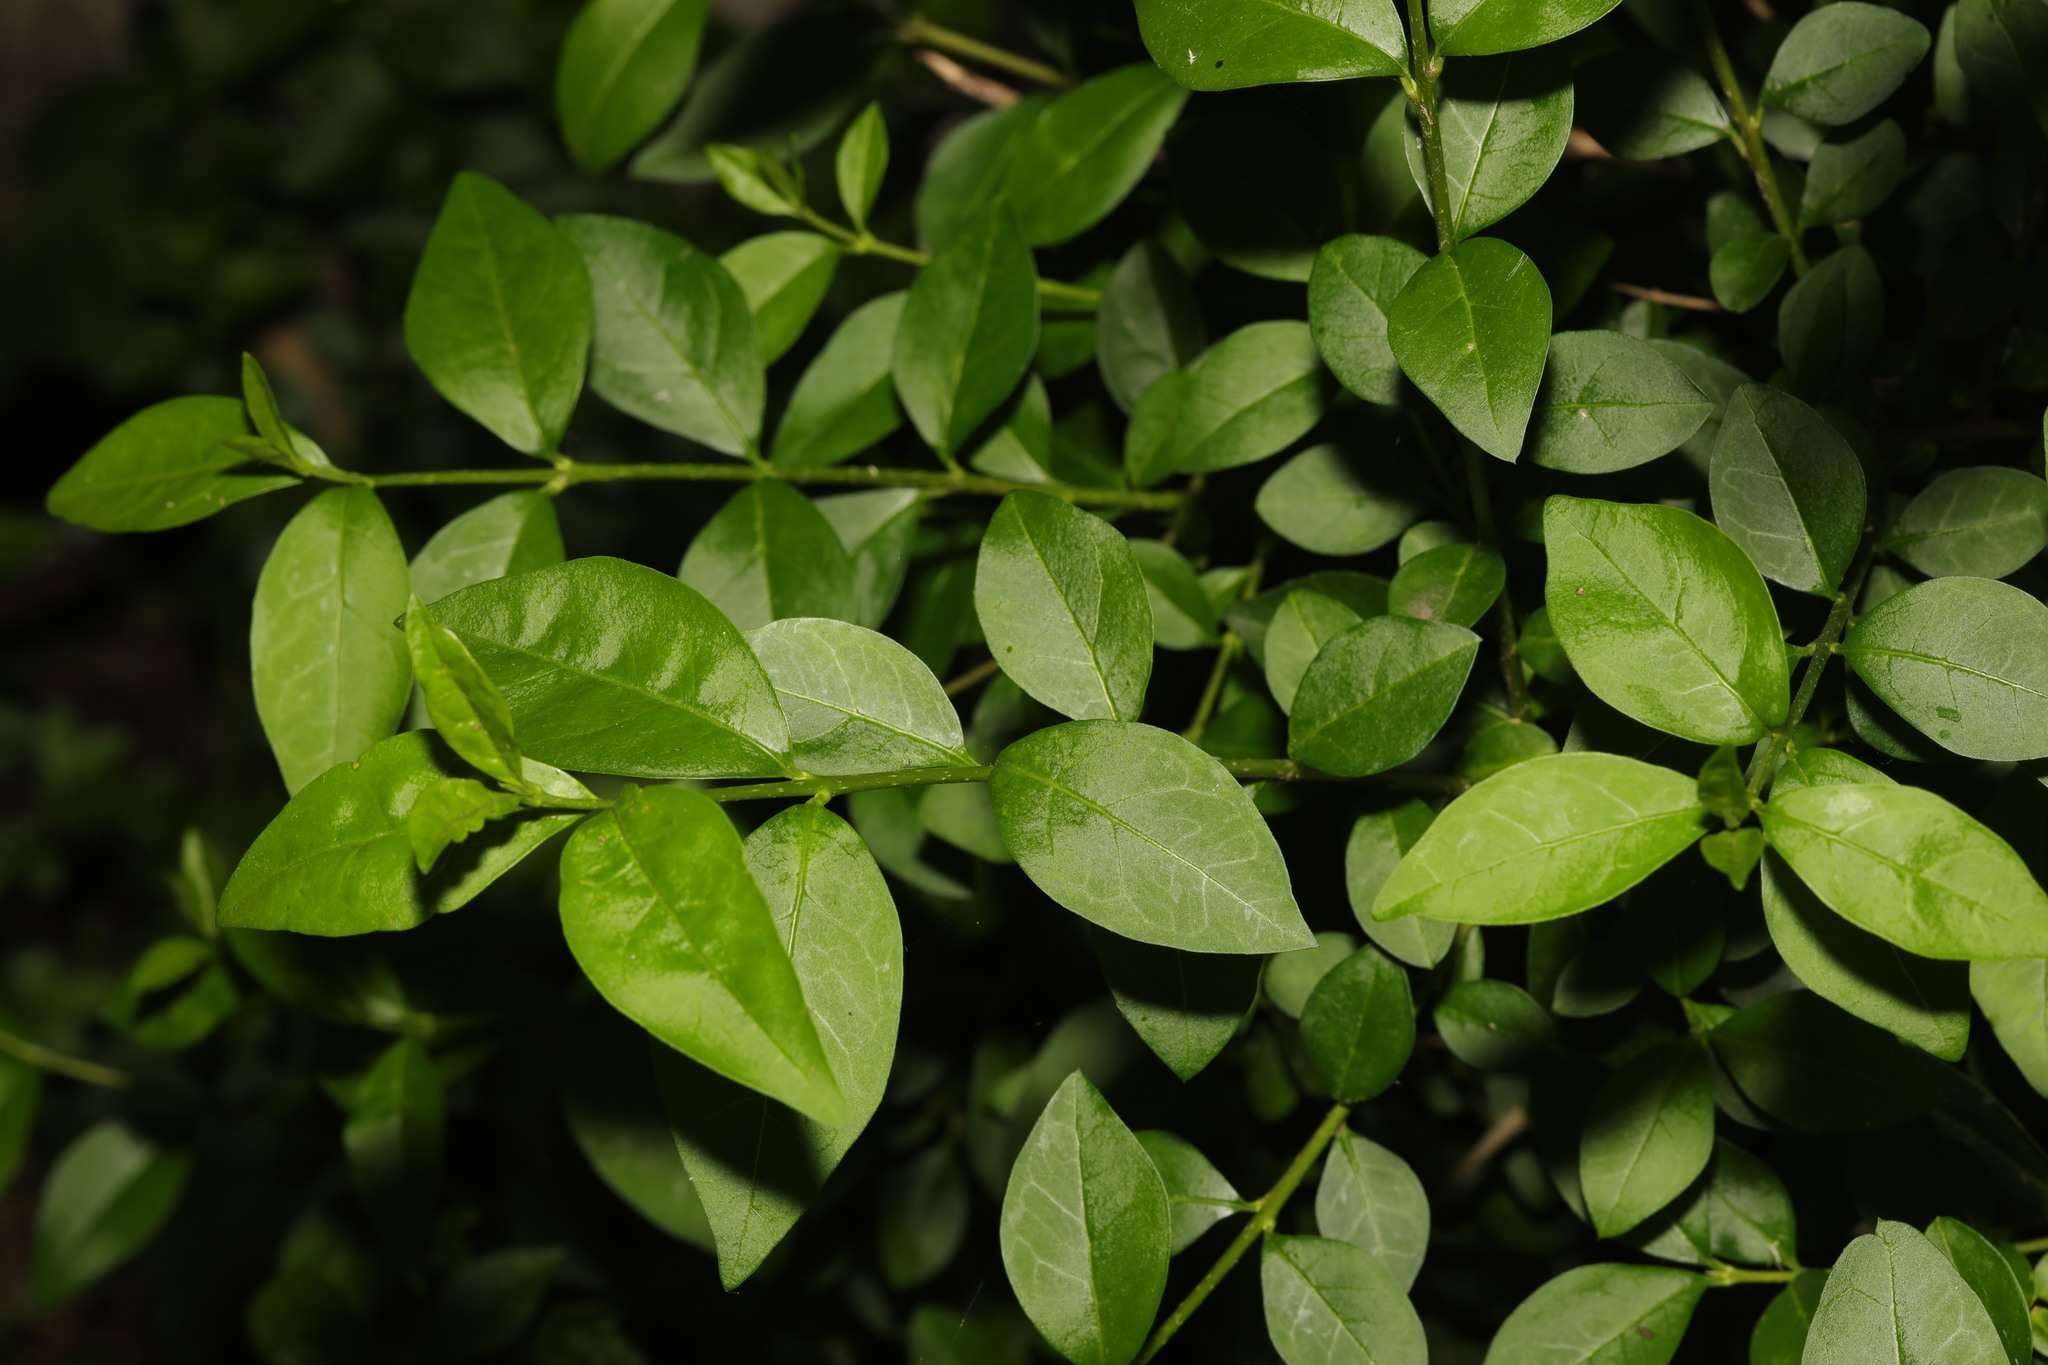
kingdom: Plantae
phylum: Tracheophyta
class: Magnoliopsida
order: Lamiales
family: Oleaceae
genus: Ligustrum
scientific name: Ligustrum ovalifolium
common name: California privet
